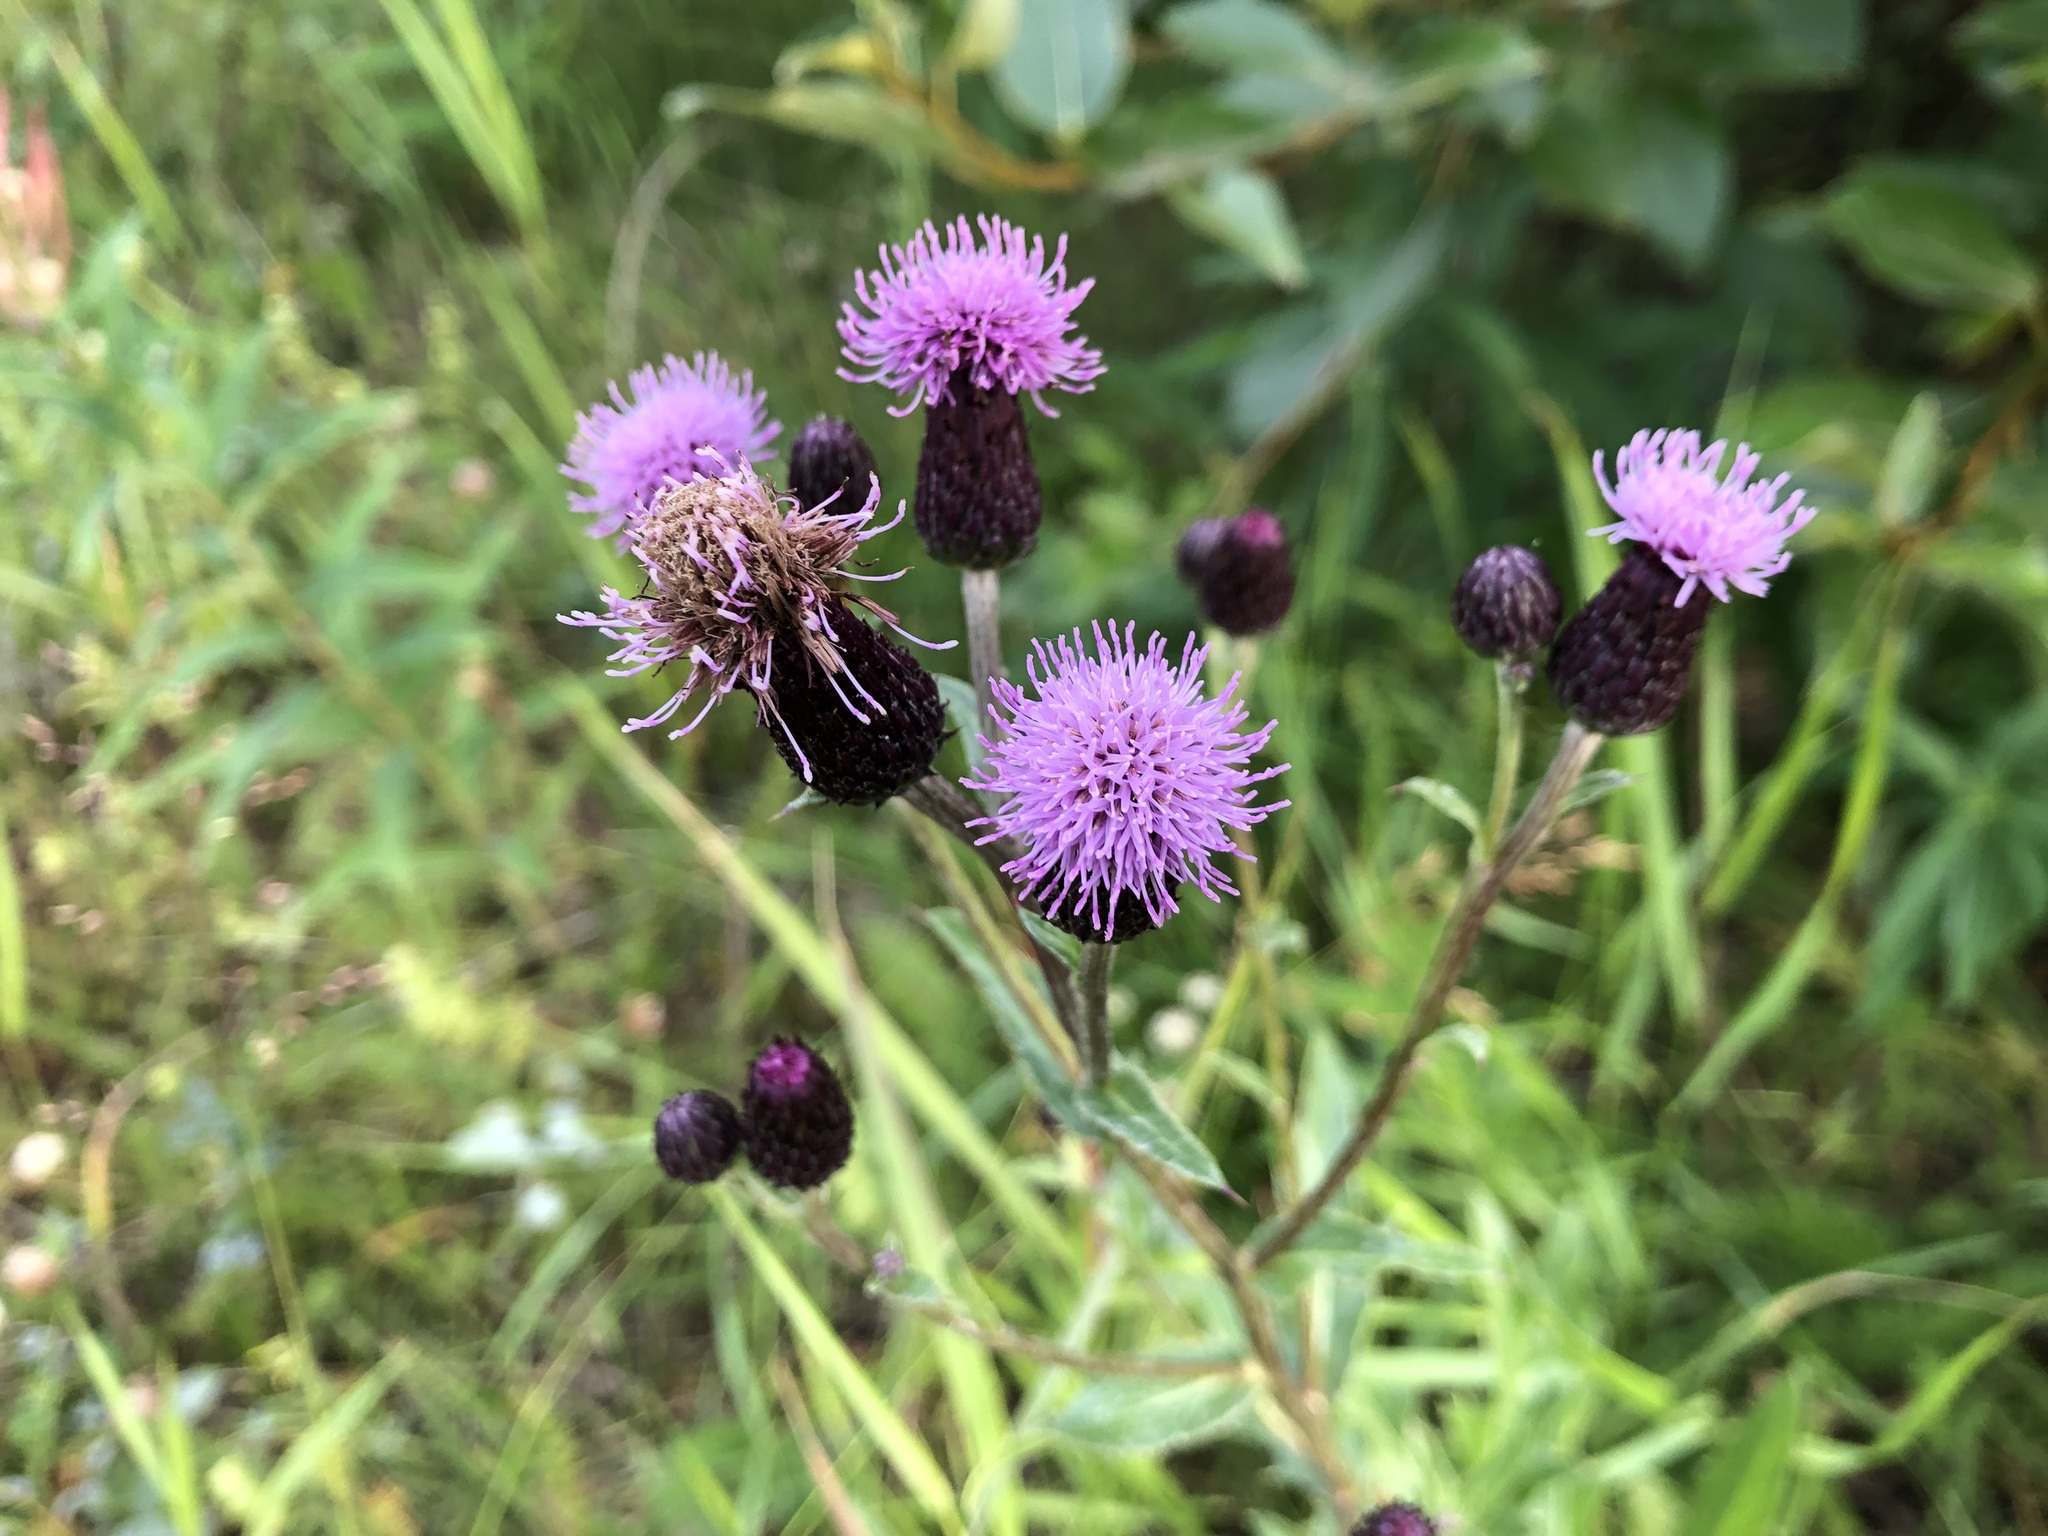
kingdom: Plantae
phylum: Tracheophyta
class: Magnoliopsida
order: Asterales
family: Asteraceae
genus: Cirsium
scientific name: Cirsium arvense
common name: Creeping thistle
